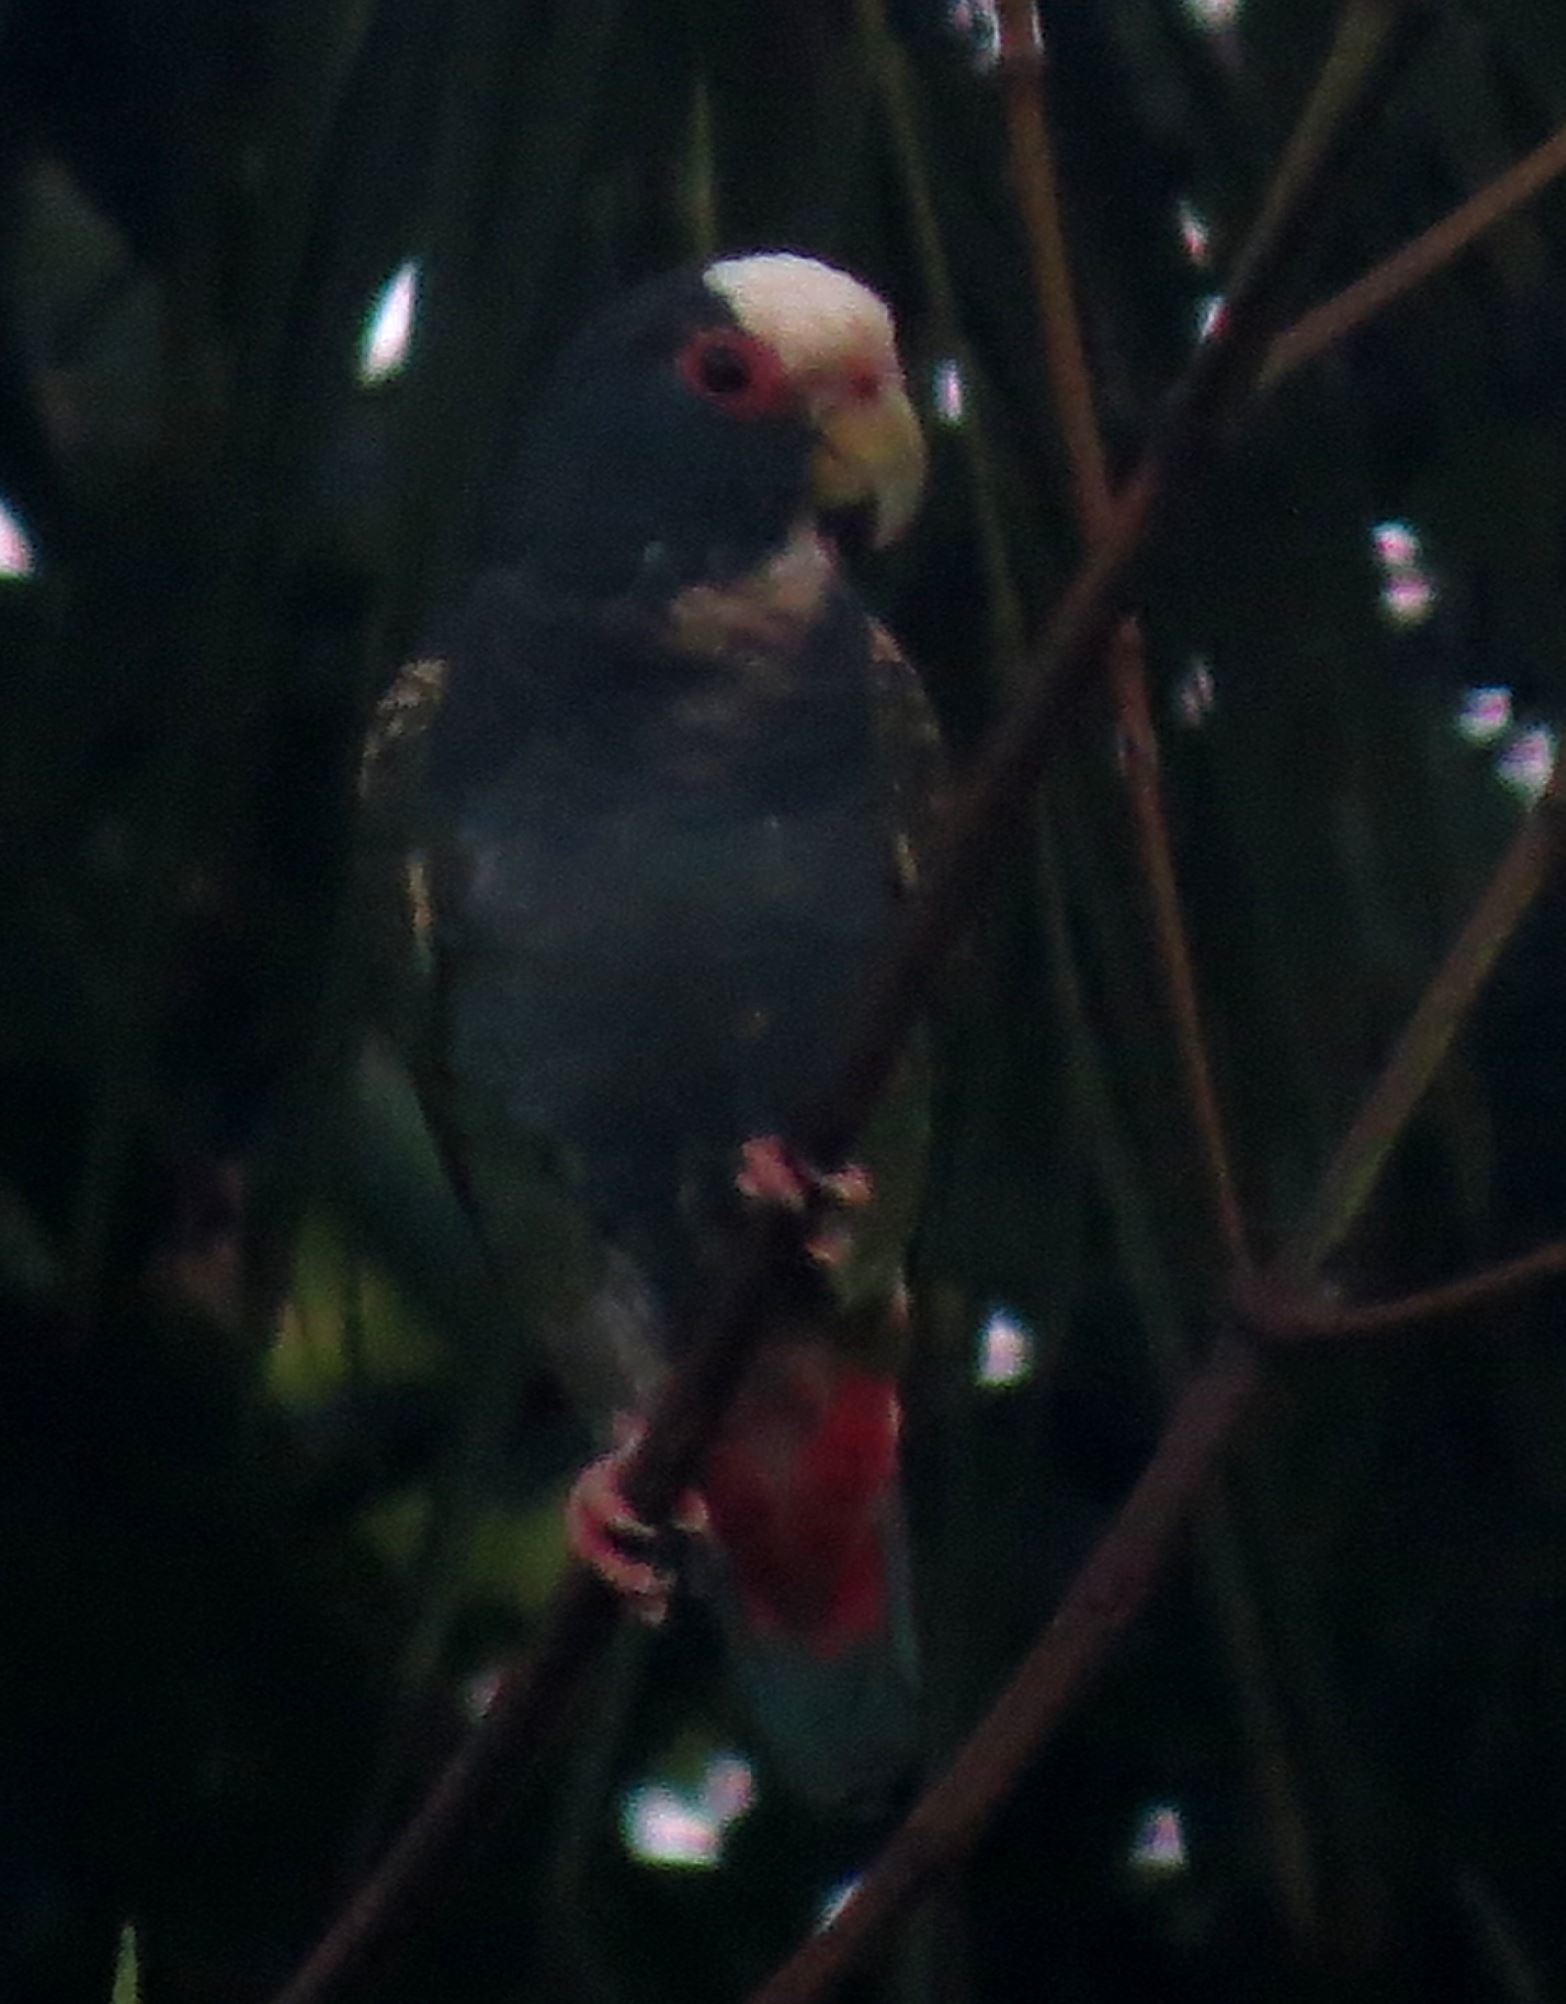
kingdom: Animalia
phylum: Chordata
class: Aves
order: Psittaciformes
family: Psittacidae
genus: Pionus
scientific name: Pionus senilis
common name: White-crowned parrot
